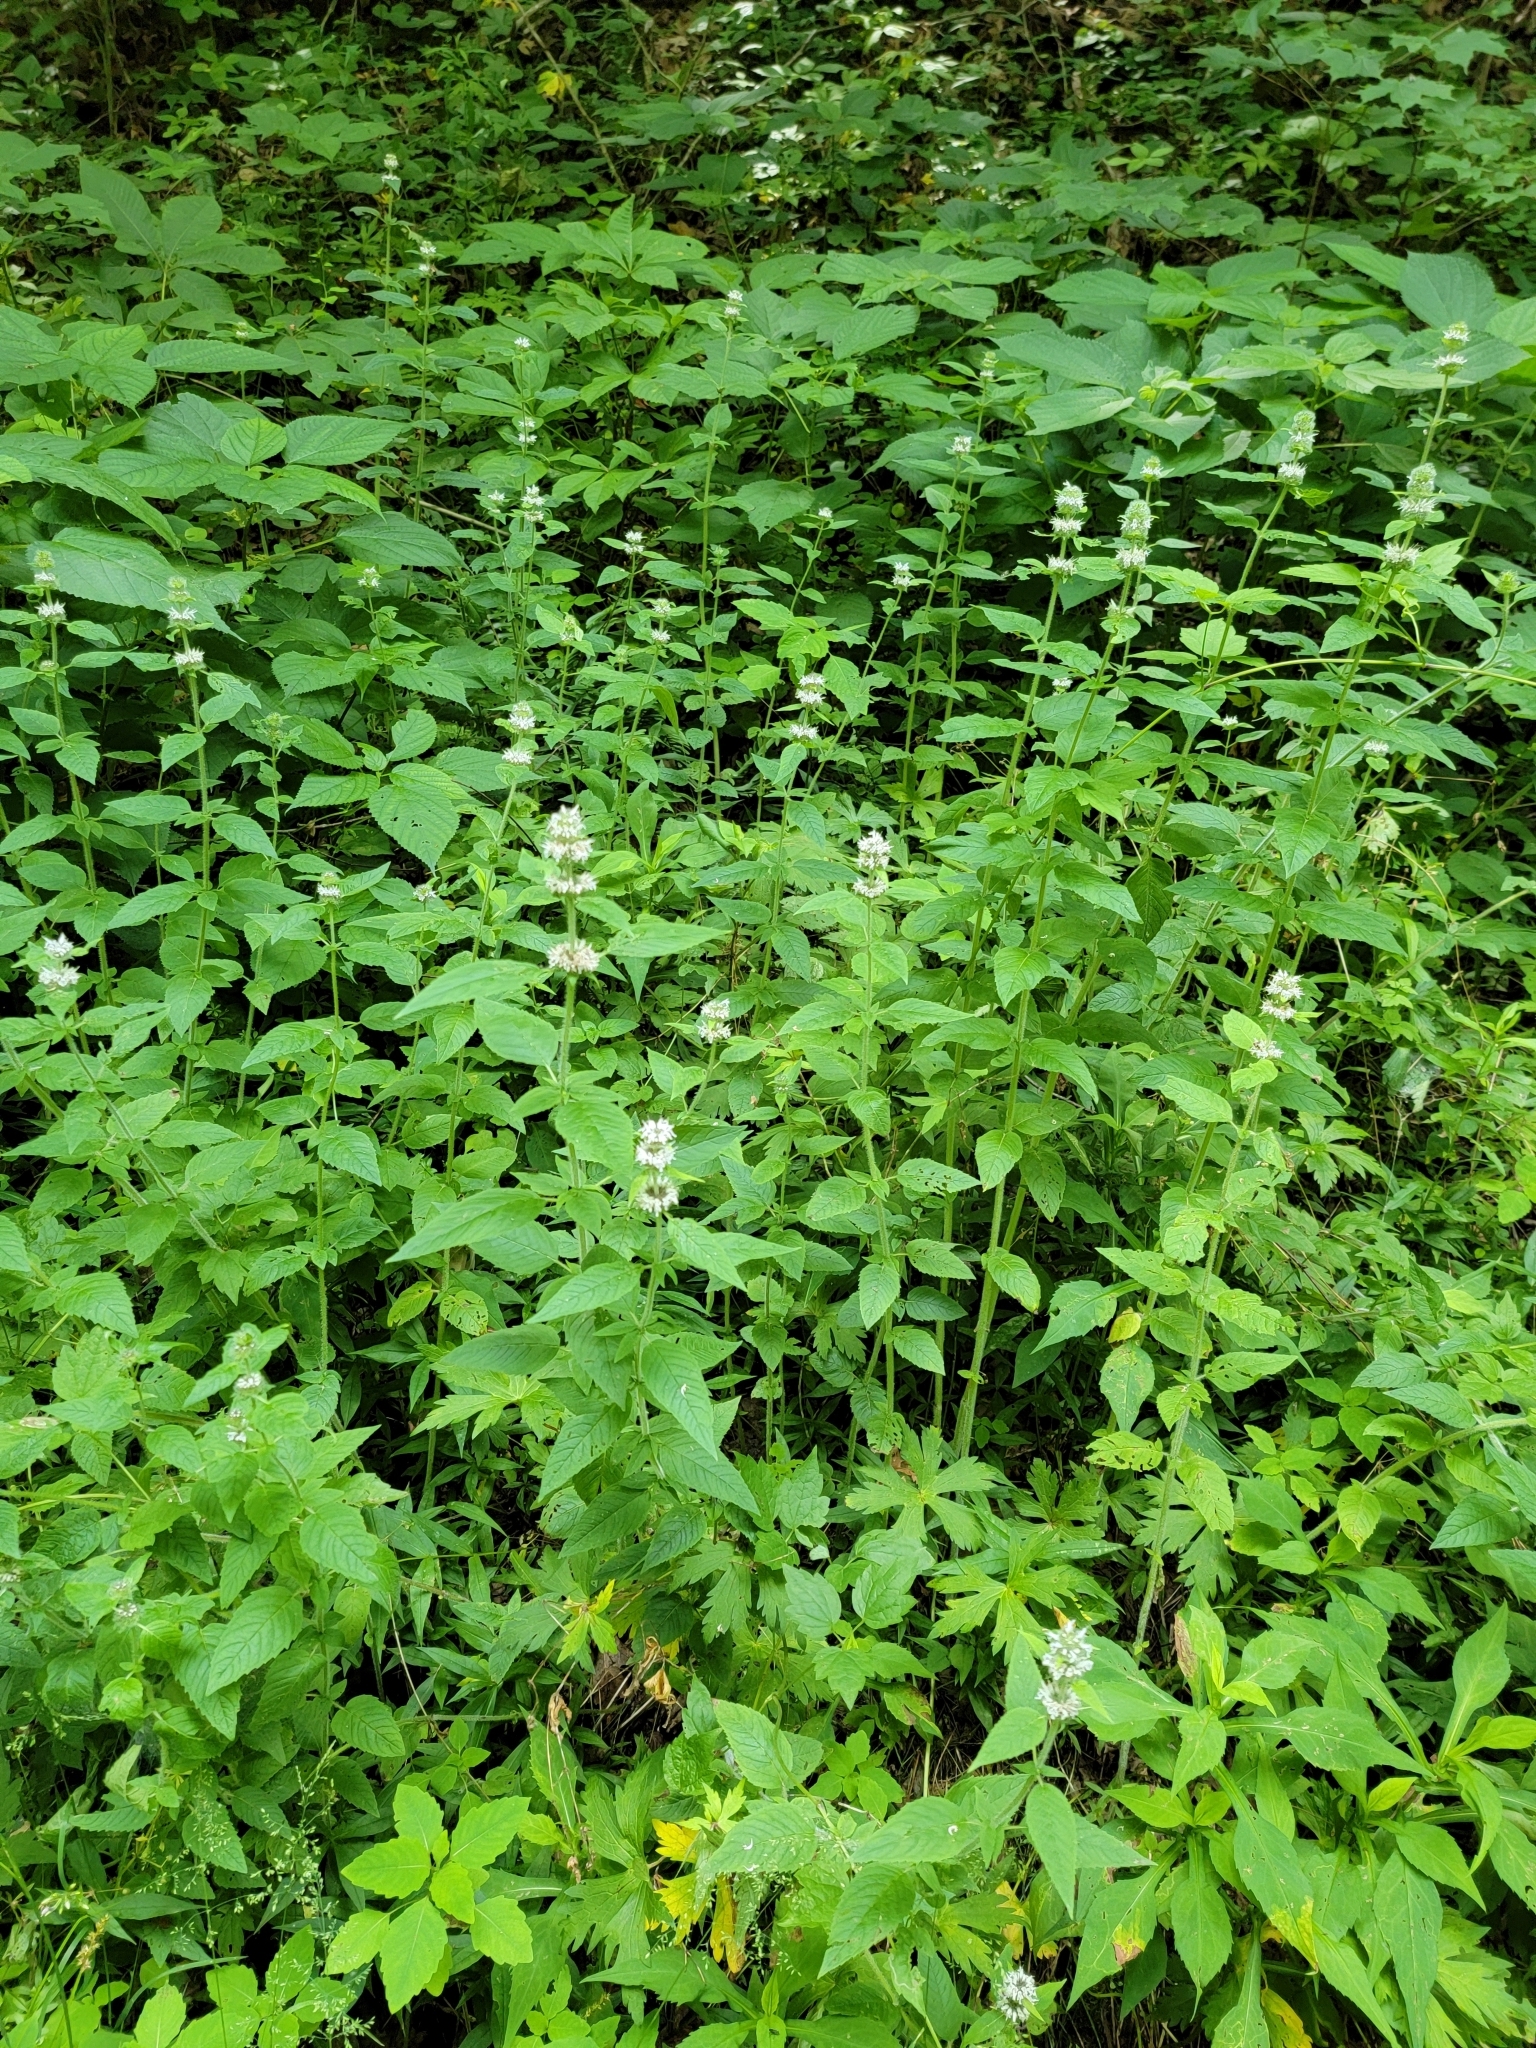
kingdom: Plantae
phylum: Tracheophyta
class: Magnoliopsida
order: Lamiales
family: Lamiaceae
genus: Blephilia
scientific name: Blephilia hirsuta
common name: Hairy blephilia
